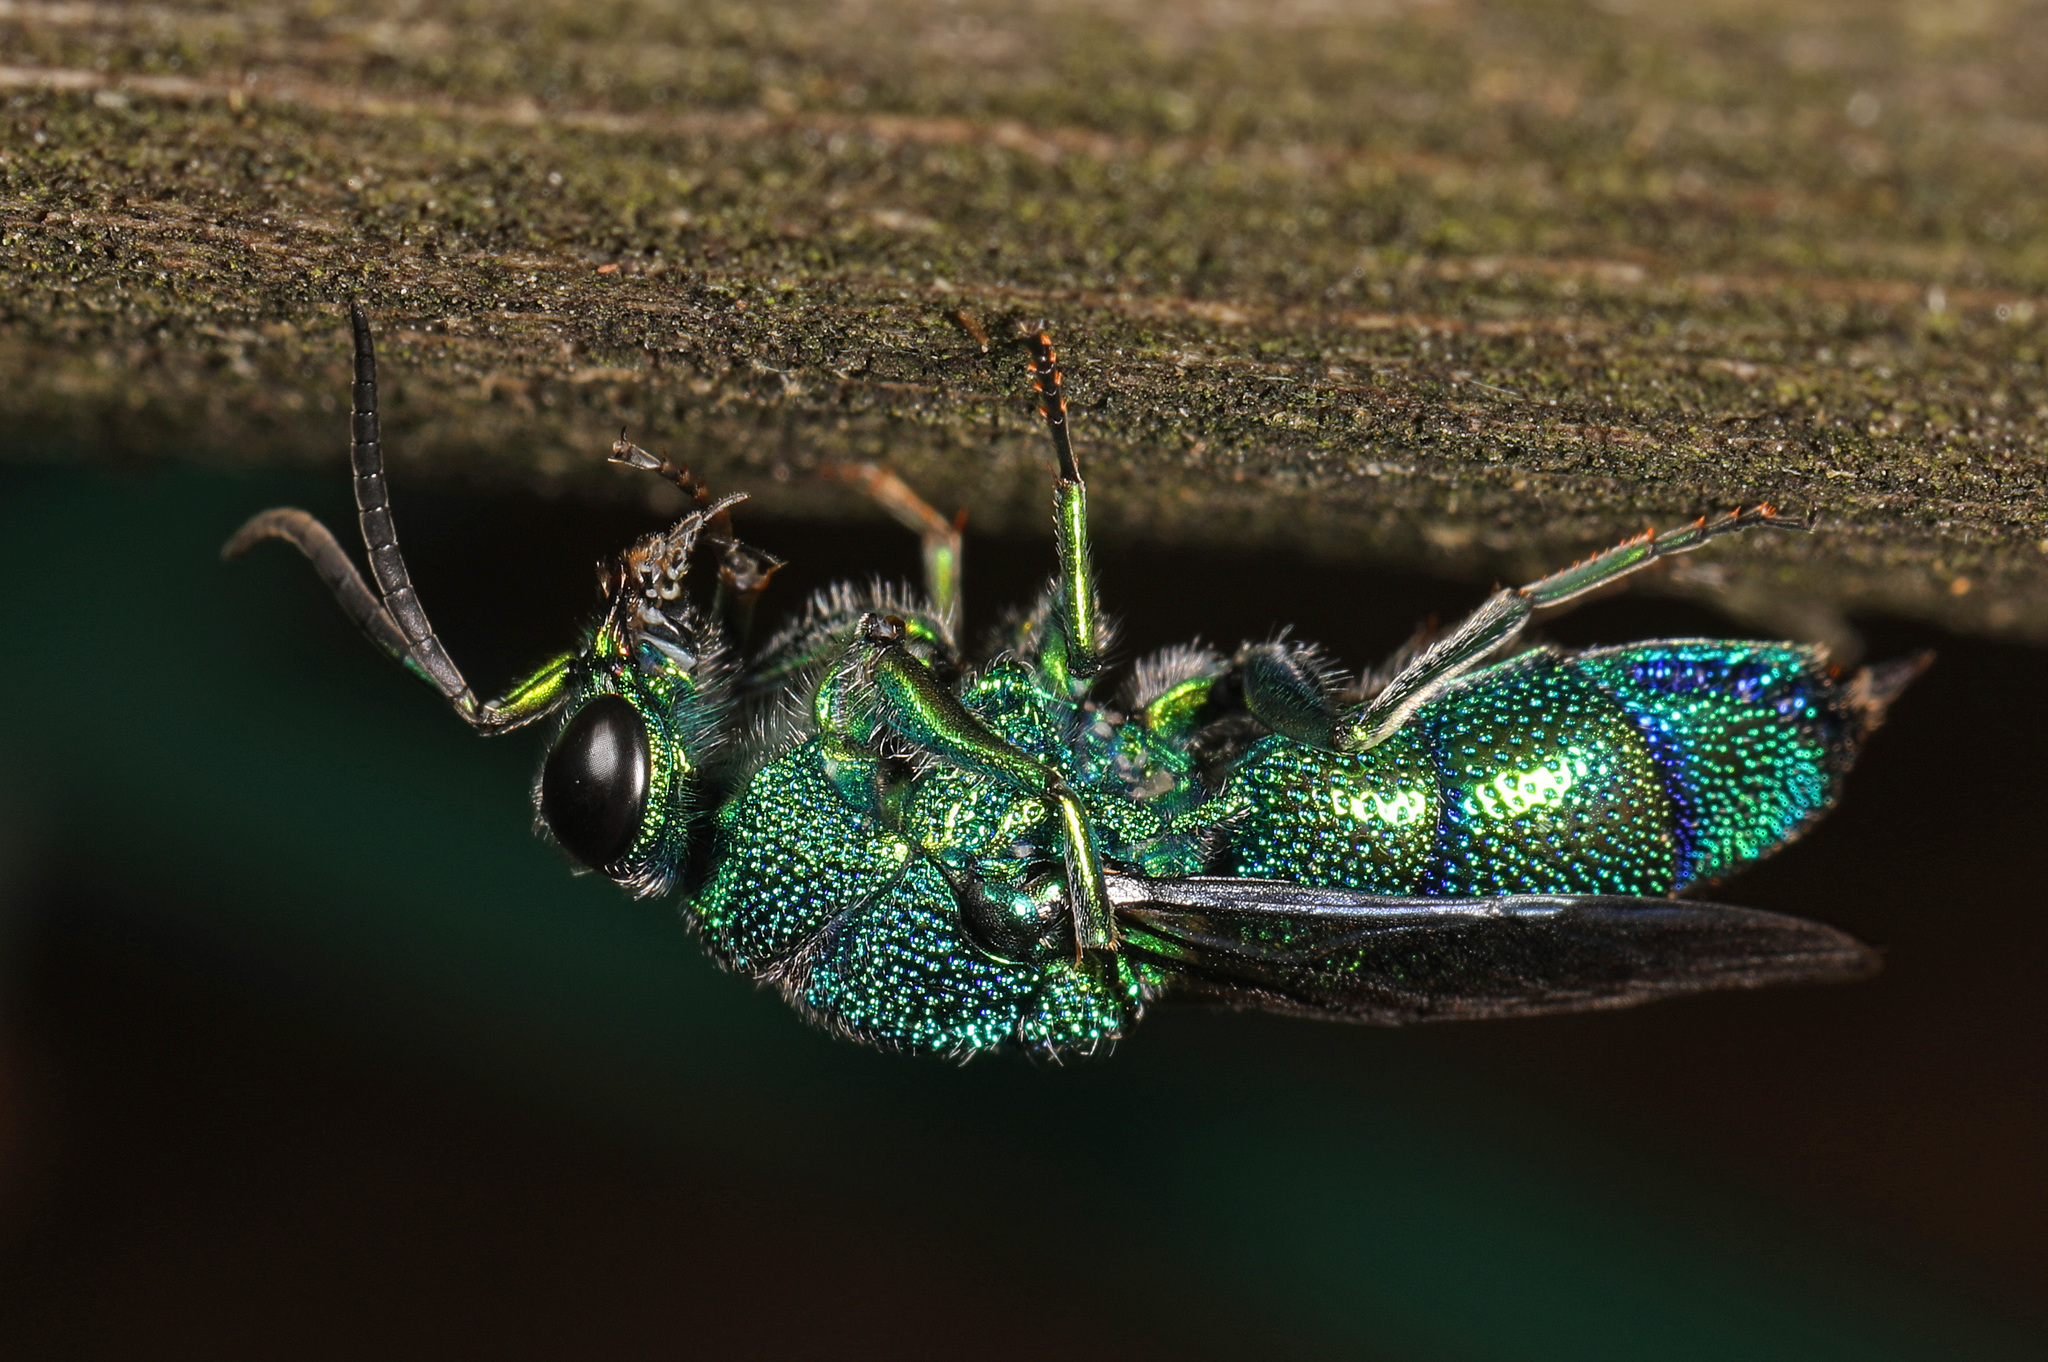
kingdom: Animalia
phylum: Arthropoda
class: Insecta
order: Hymenoptera
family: Chrysididae
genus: Chrysis
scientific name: Chrysis smaragdula
